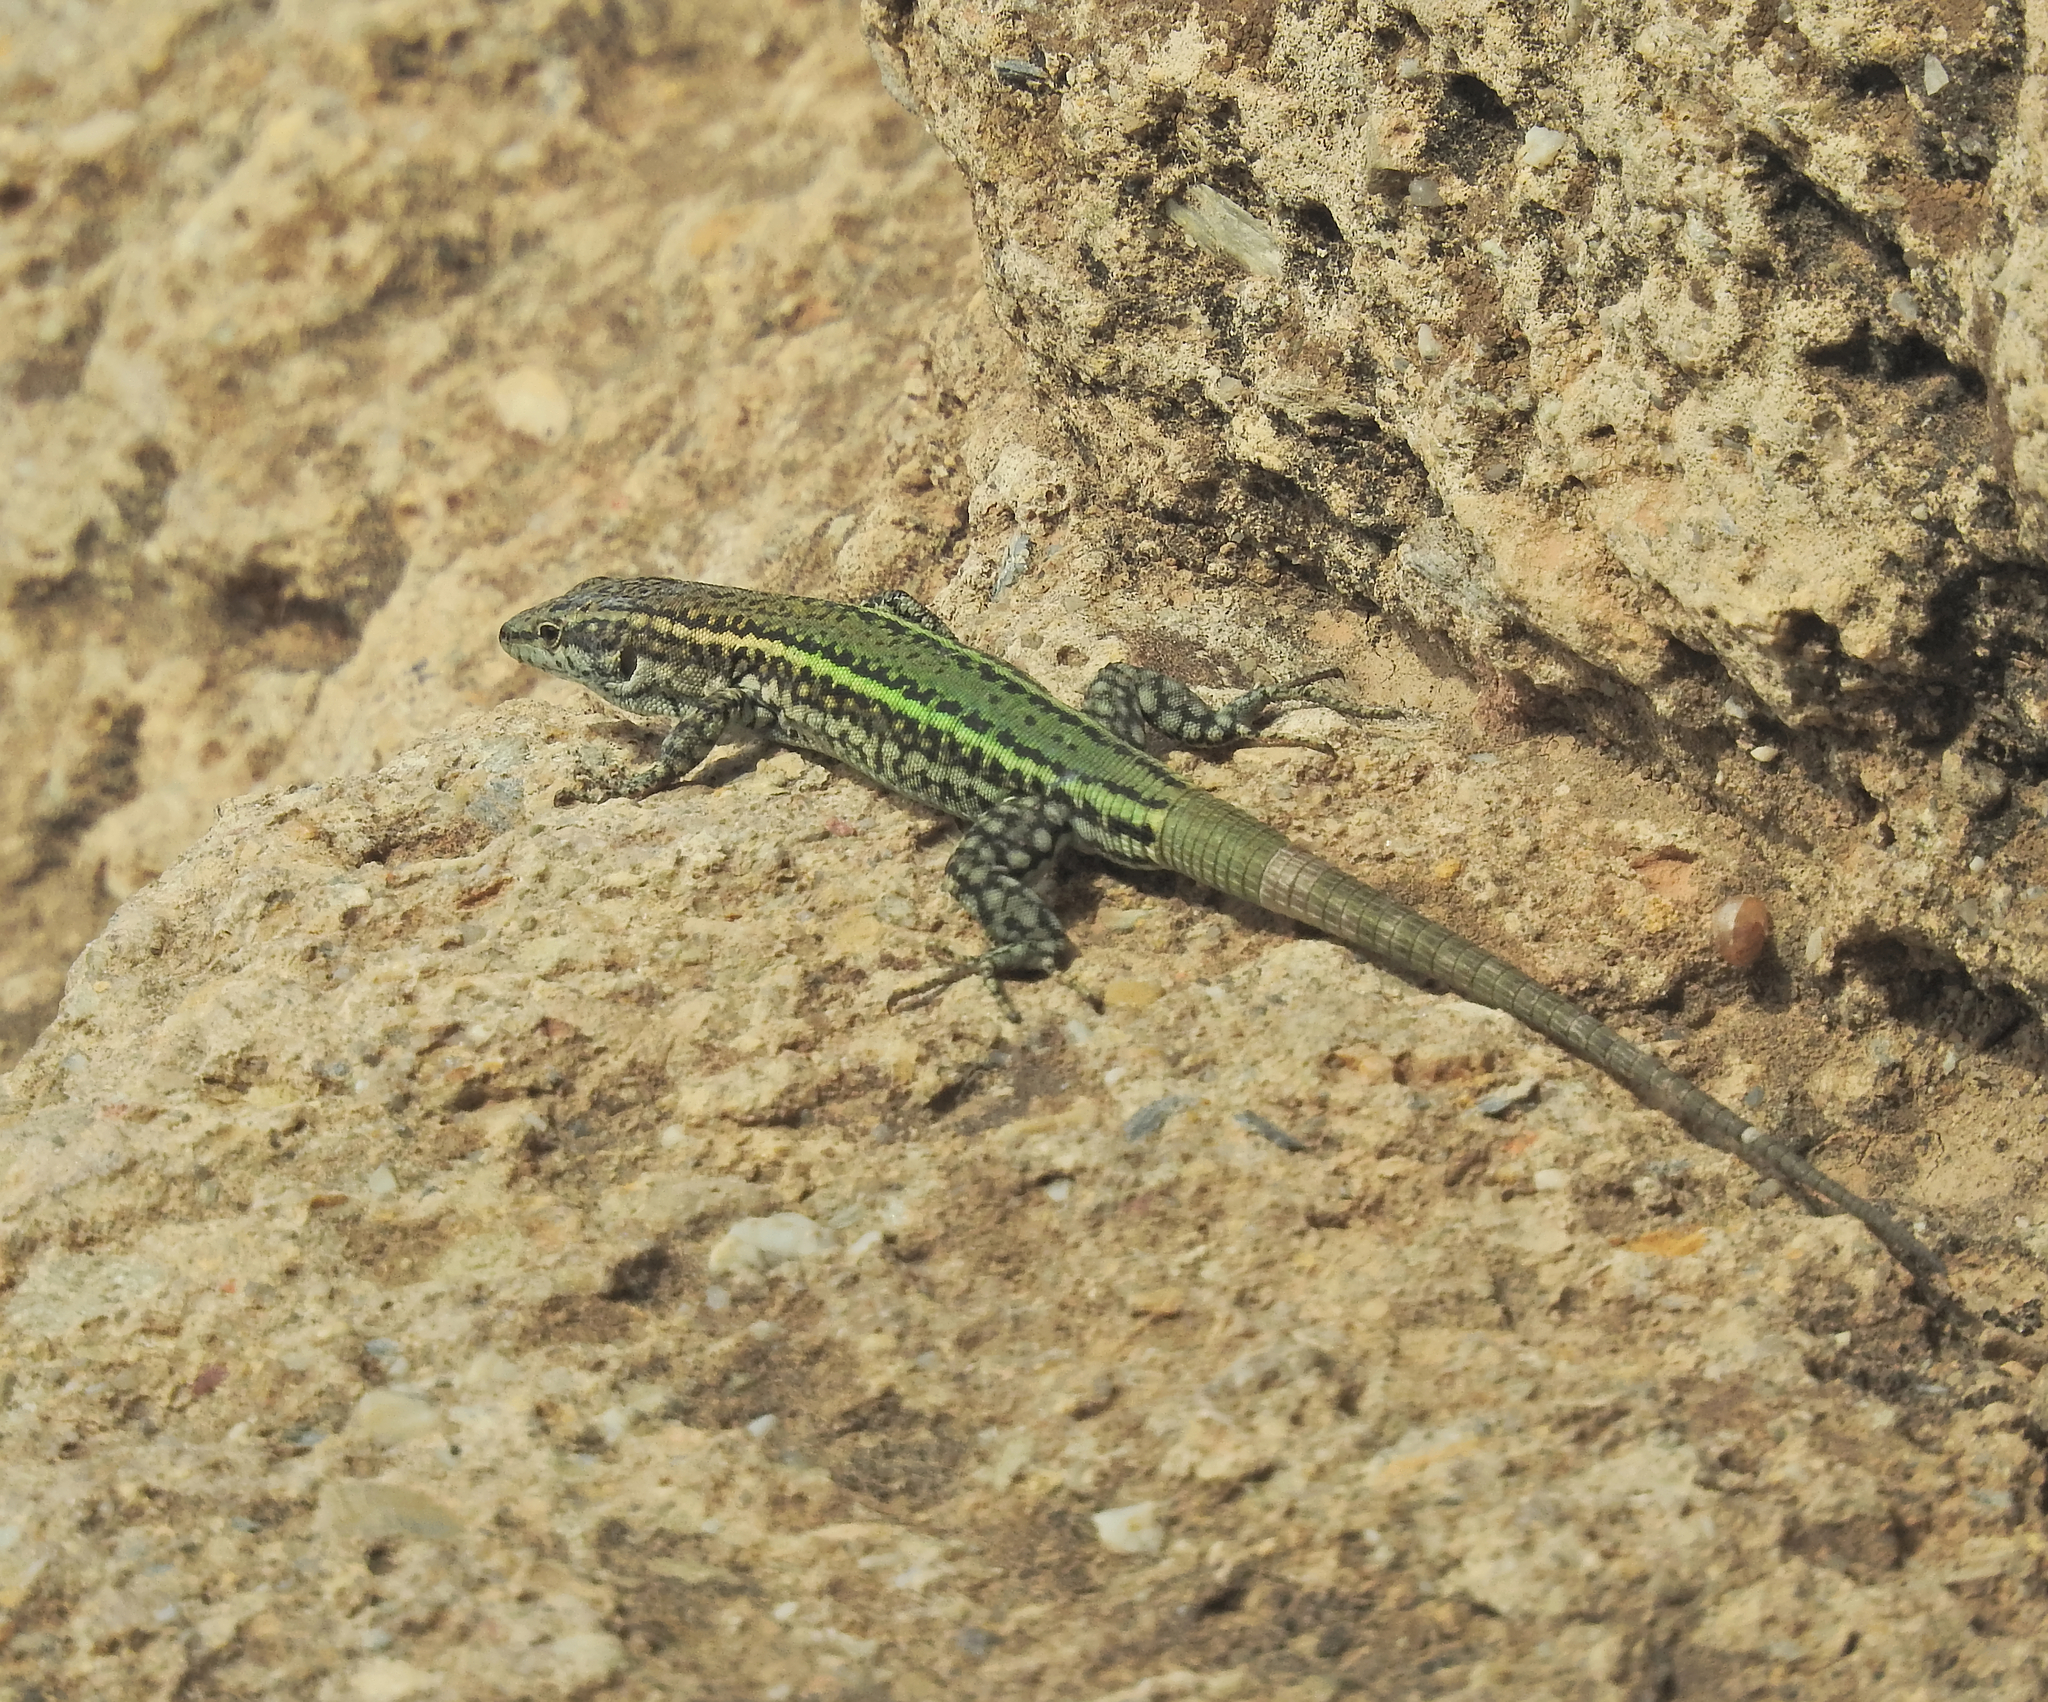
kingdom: Animalia
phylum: Chordata
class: Squamata
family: Lacertidae
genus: Podarcis
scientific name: Podarcis vaucheri
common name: Vaucher's wall lizard
